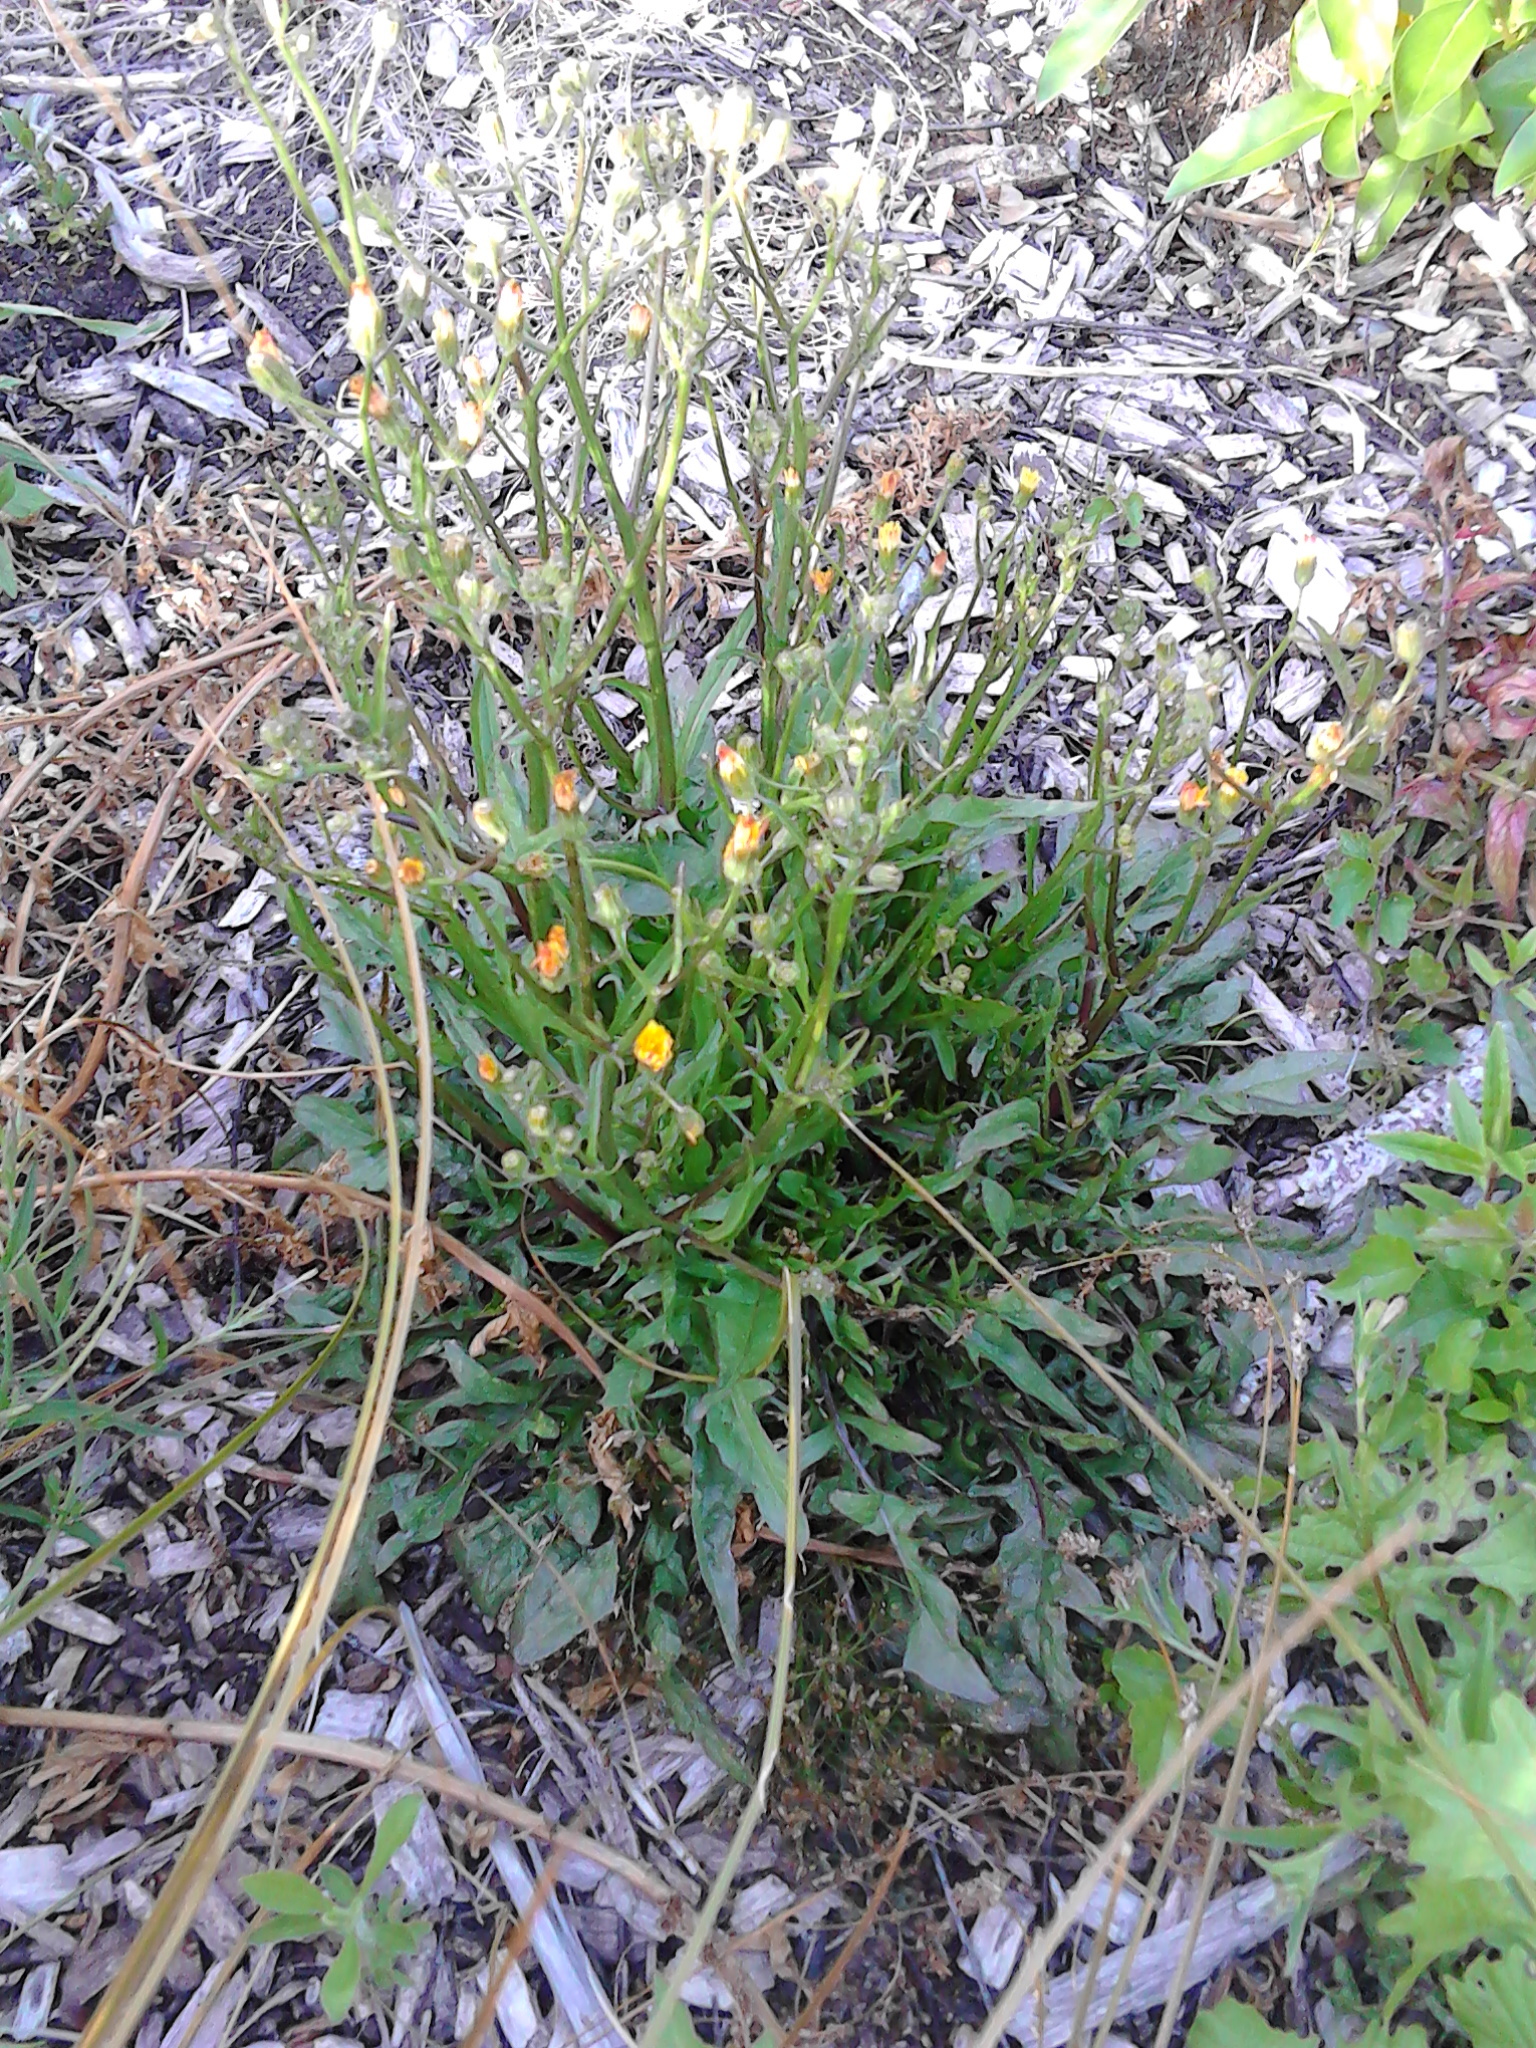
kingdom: Plantae
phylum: Tracheophyta
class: Magnoliopsida
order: Asterales
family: Asteraceae
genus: Crepis
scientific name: Crepis capillaris
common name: Smooth hawksbeard
